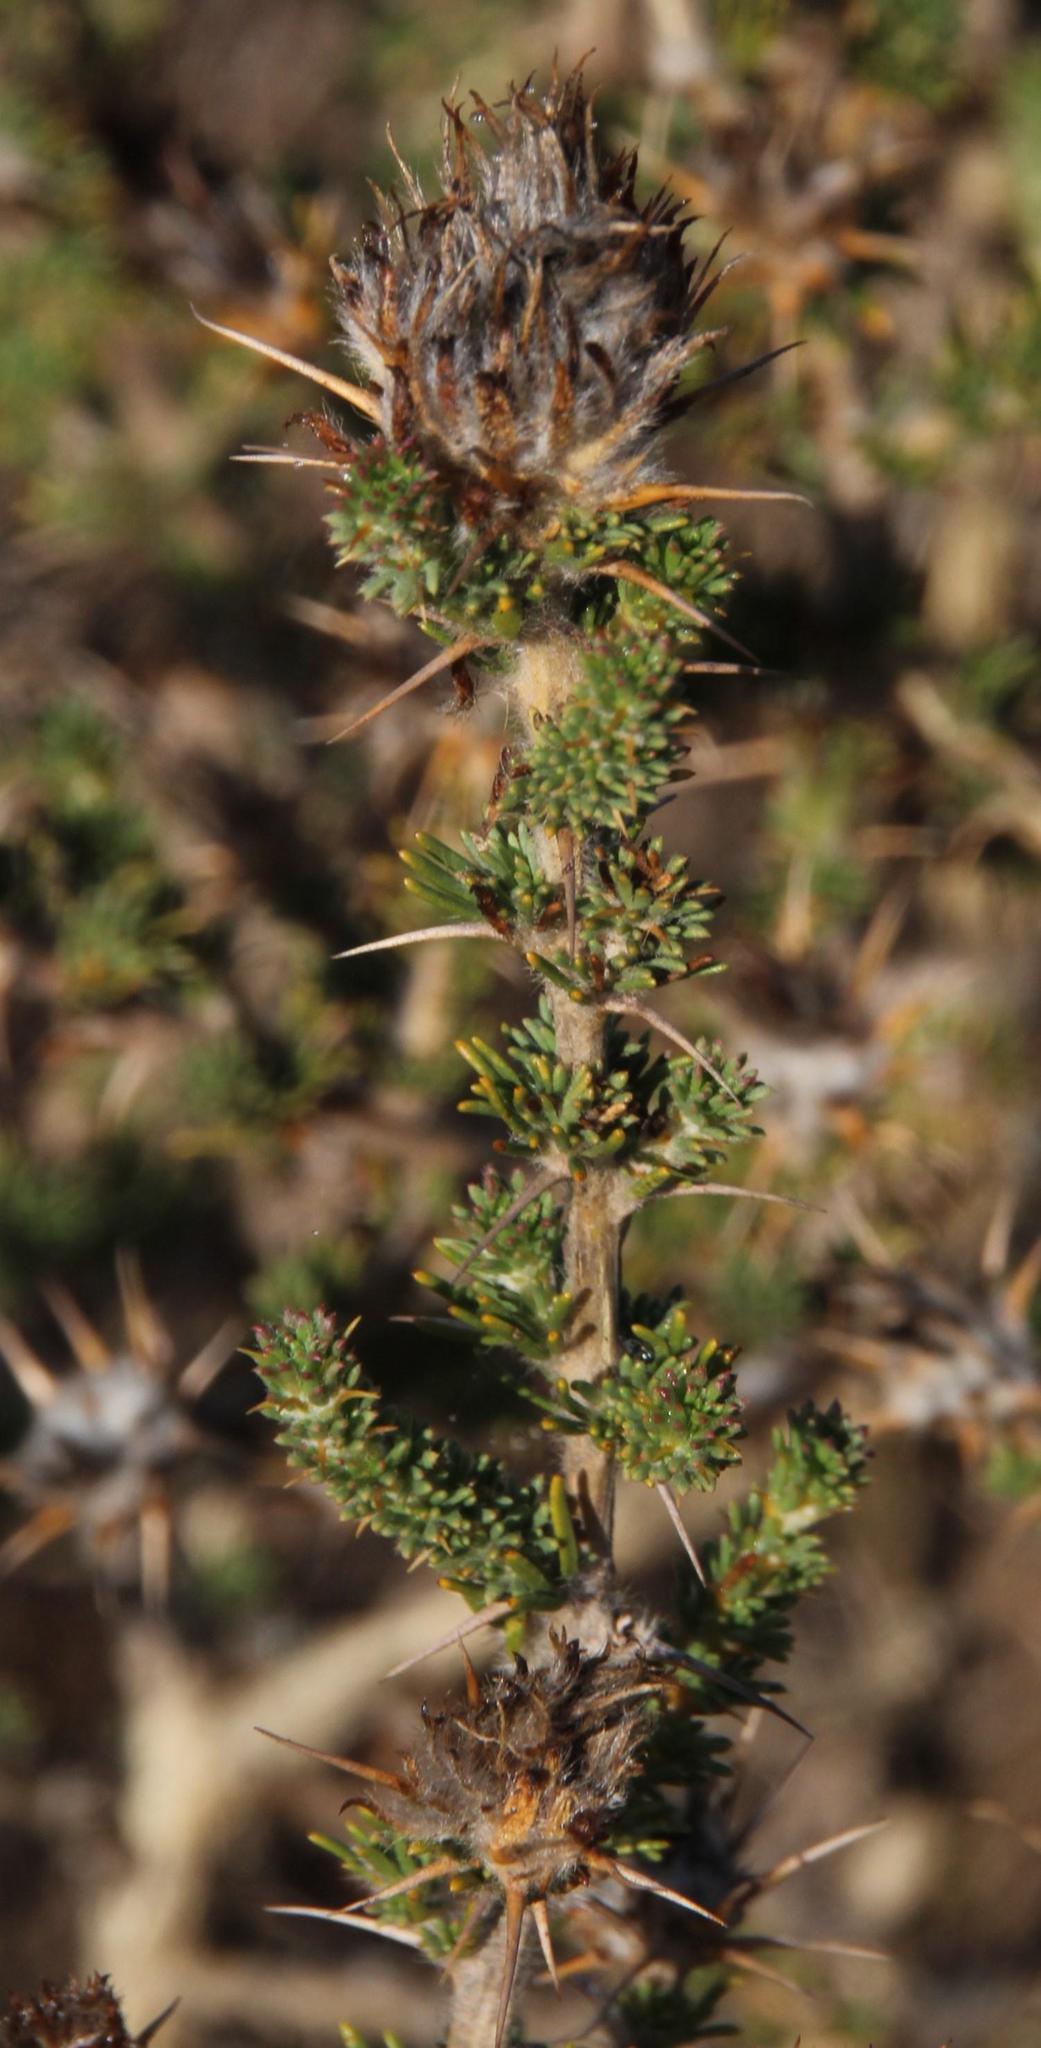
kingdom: Plantae
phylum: Tracheophyta
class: Magnoliopsida
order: Fabales
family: Fabaceae
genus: Aspalathus
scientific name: Aspalathus aculeata
